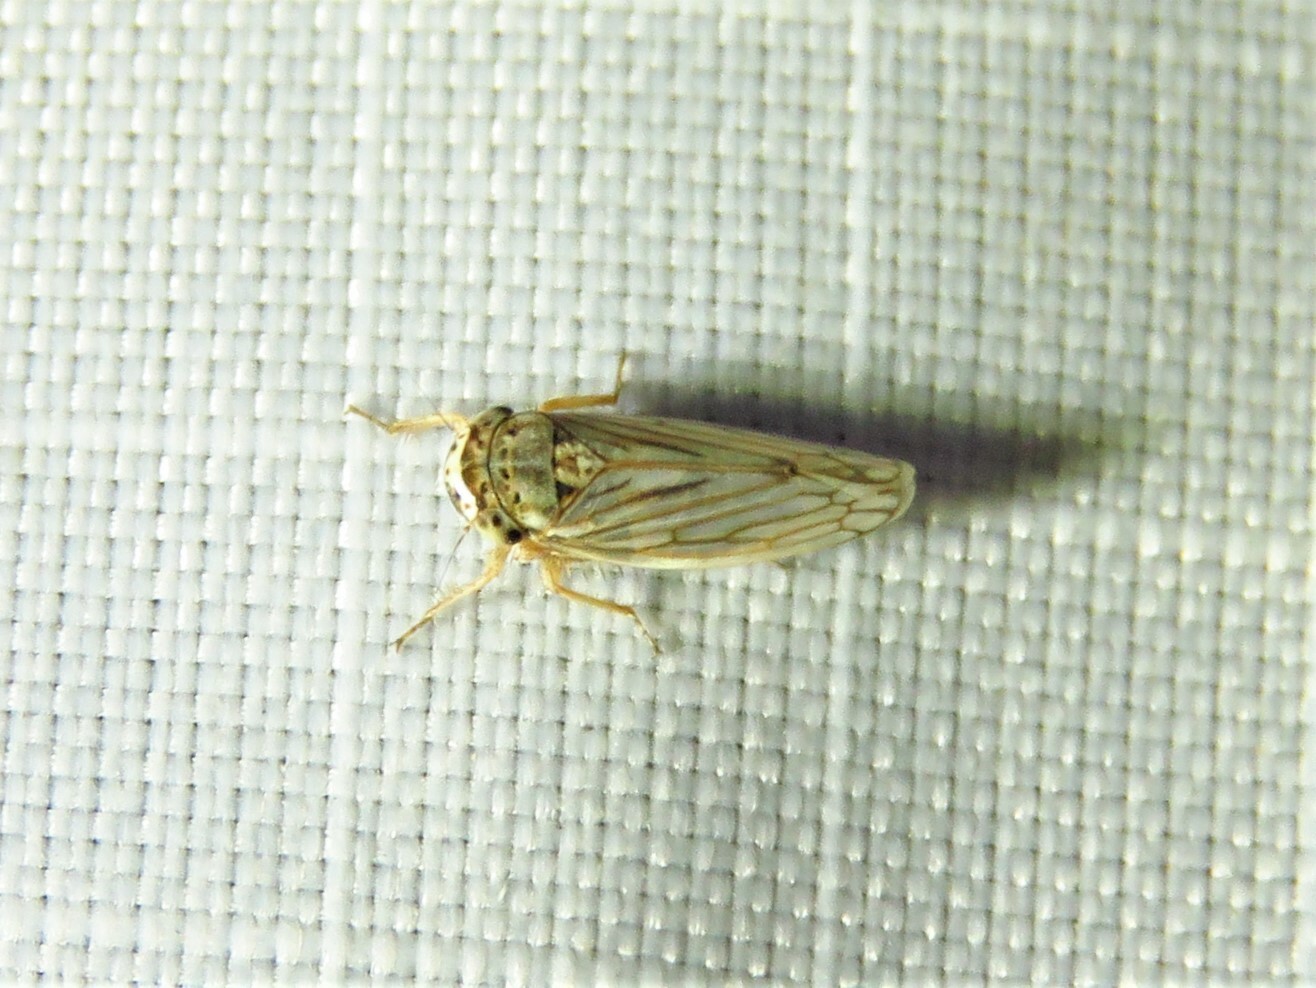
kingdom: Animalia
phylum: Arthropoda
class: Insecta
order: Hemiptera
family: Cicadellidae
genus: Exitianus
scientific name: Exitianus exitiosus
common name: Gray lawn leafhopper
